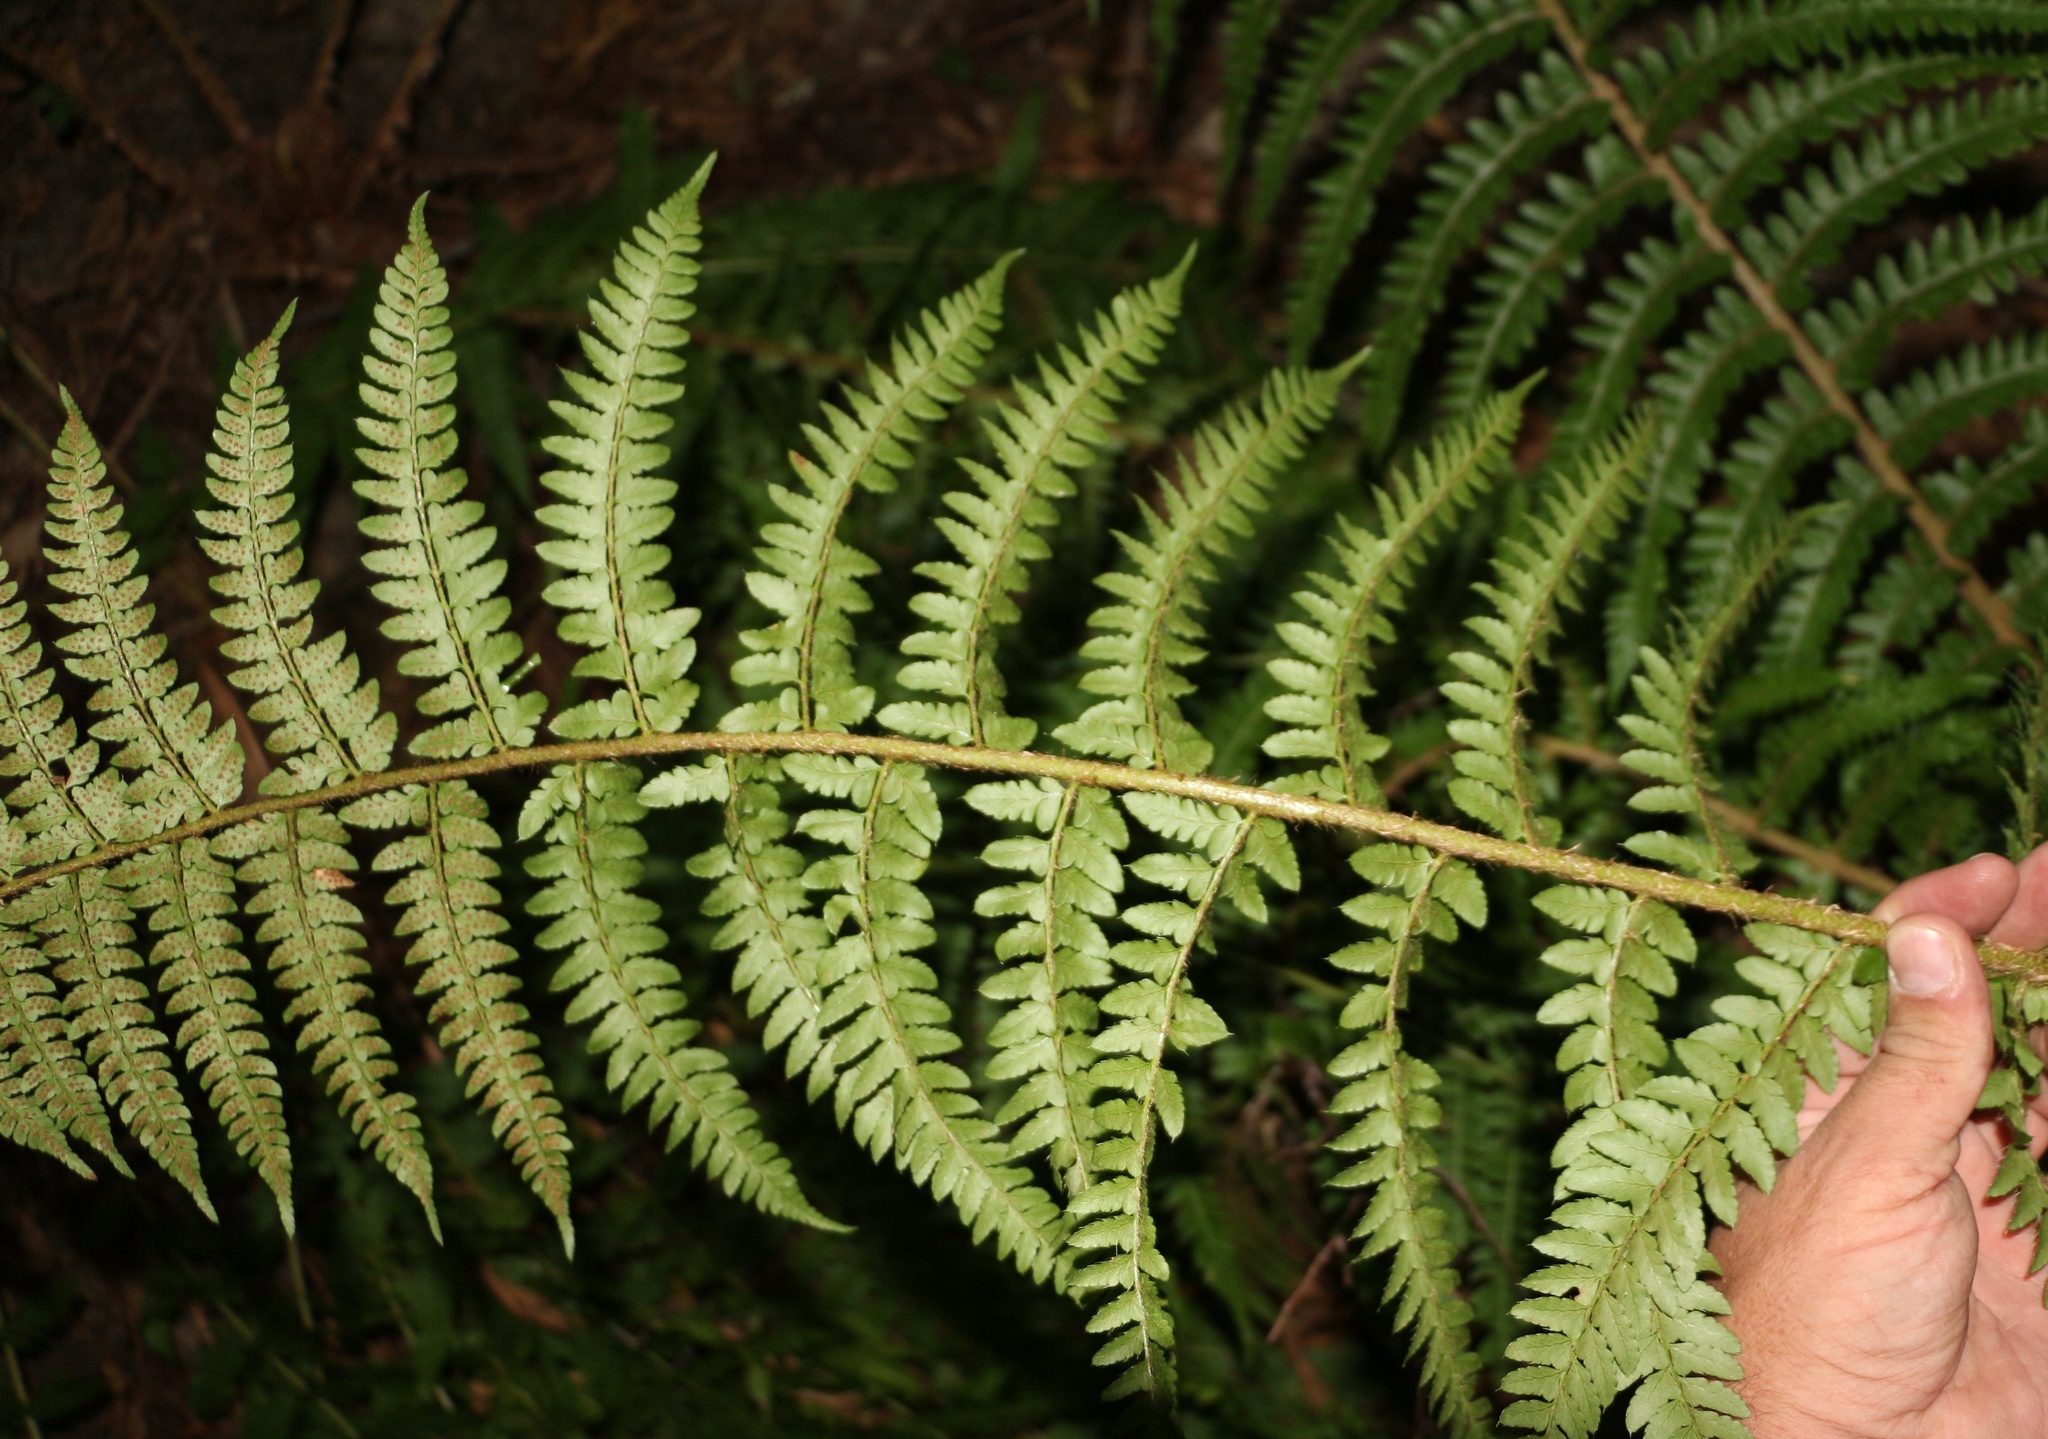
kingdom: Plantae
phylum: Tracheophyta
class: Polypodiopsida
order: Polypodiales
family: Dryopteridaceae
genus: Polystichum
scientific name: Polystichum setiferum
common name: Soft shield-fern
